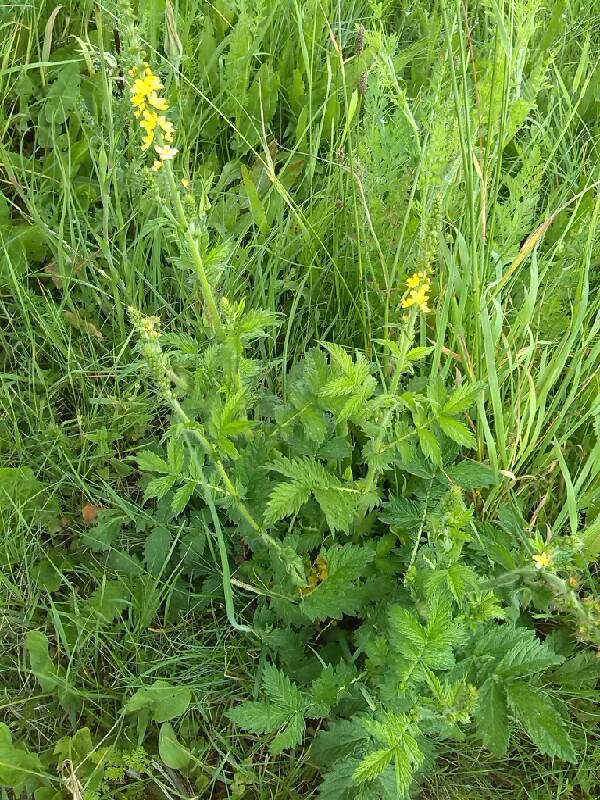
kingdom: Plantae
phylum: Tracheophyta
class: Magnoliopsida
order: Rosales
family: Rosaceae
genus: Agrimonia
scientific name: Agrimonia eupatoria
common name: Agrimony
